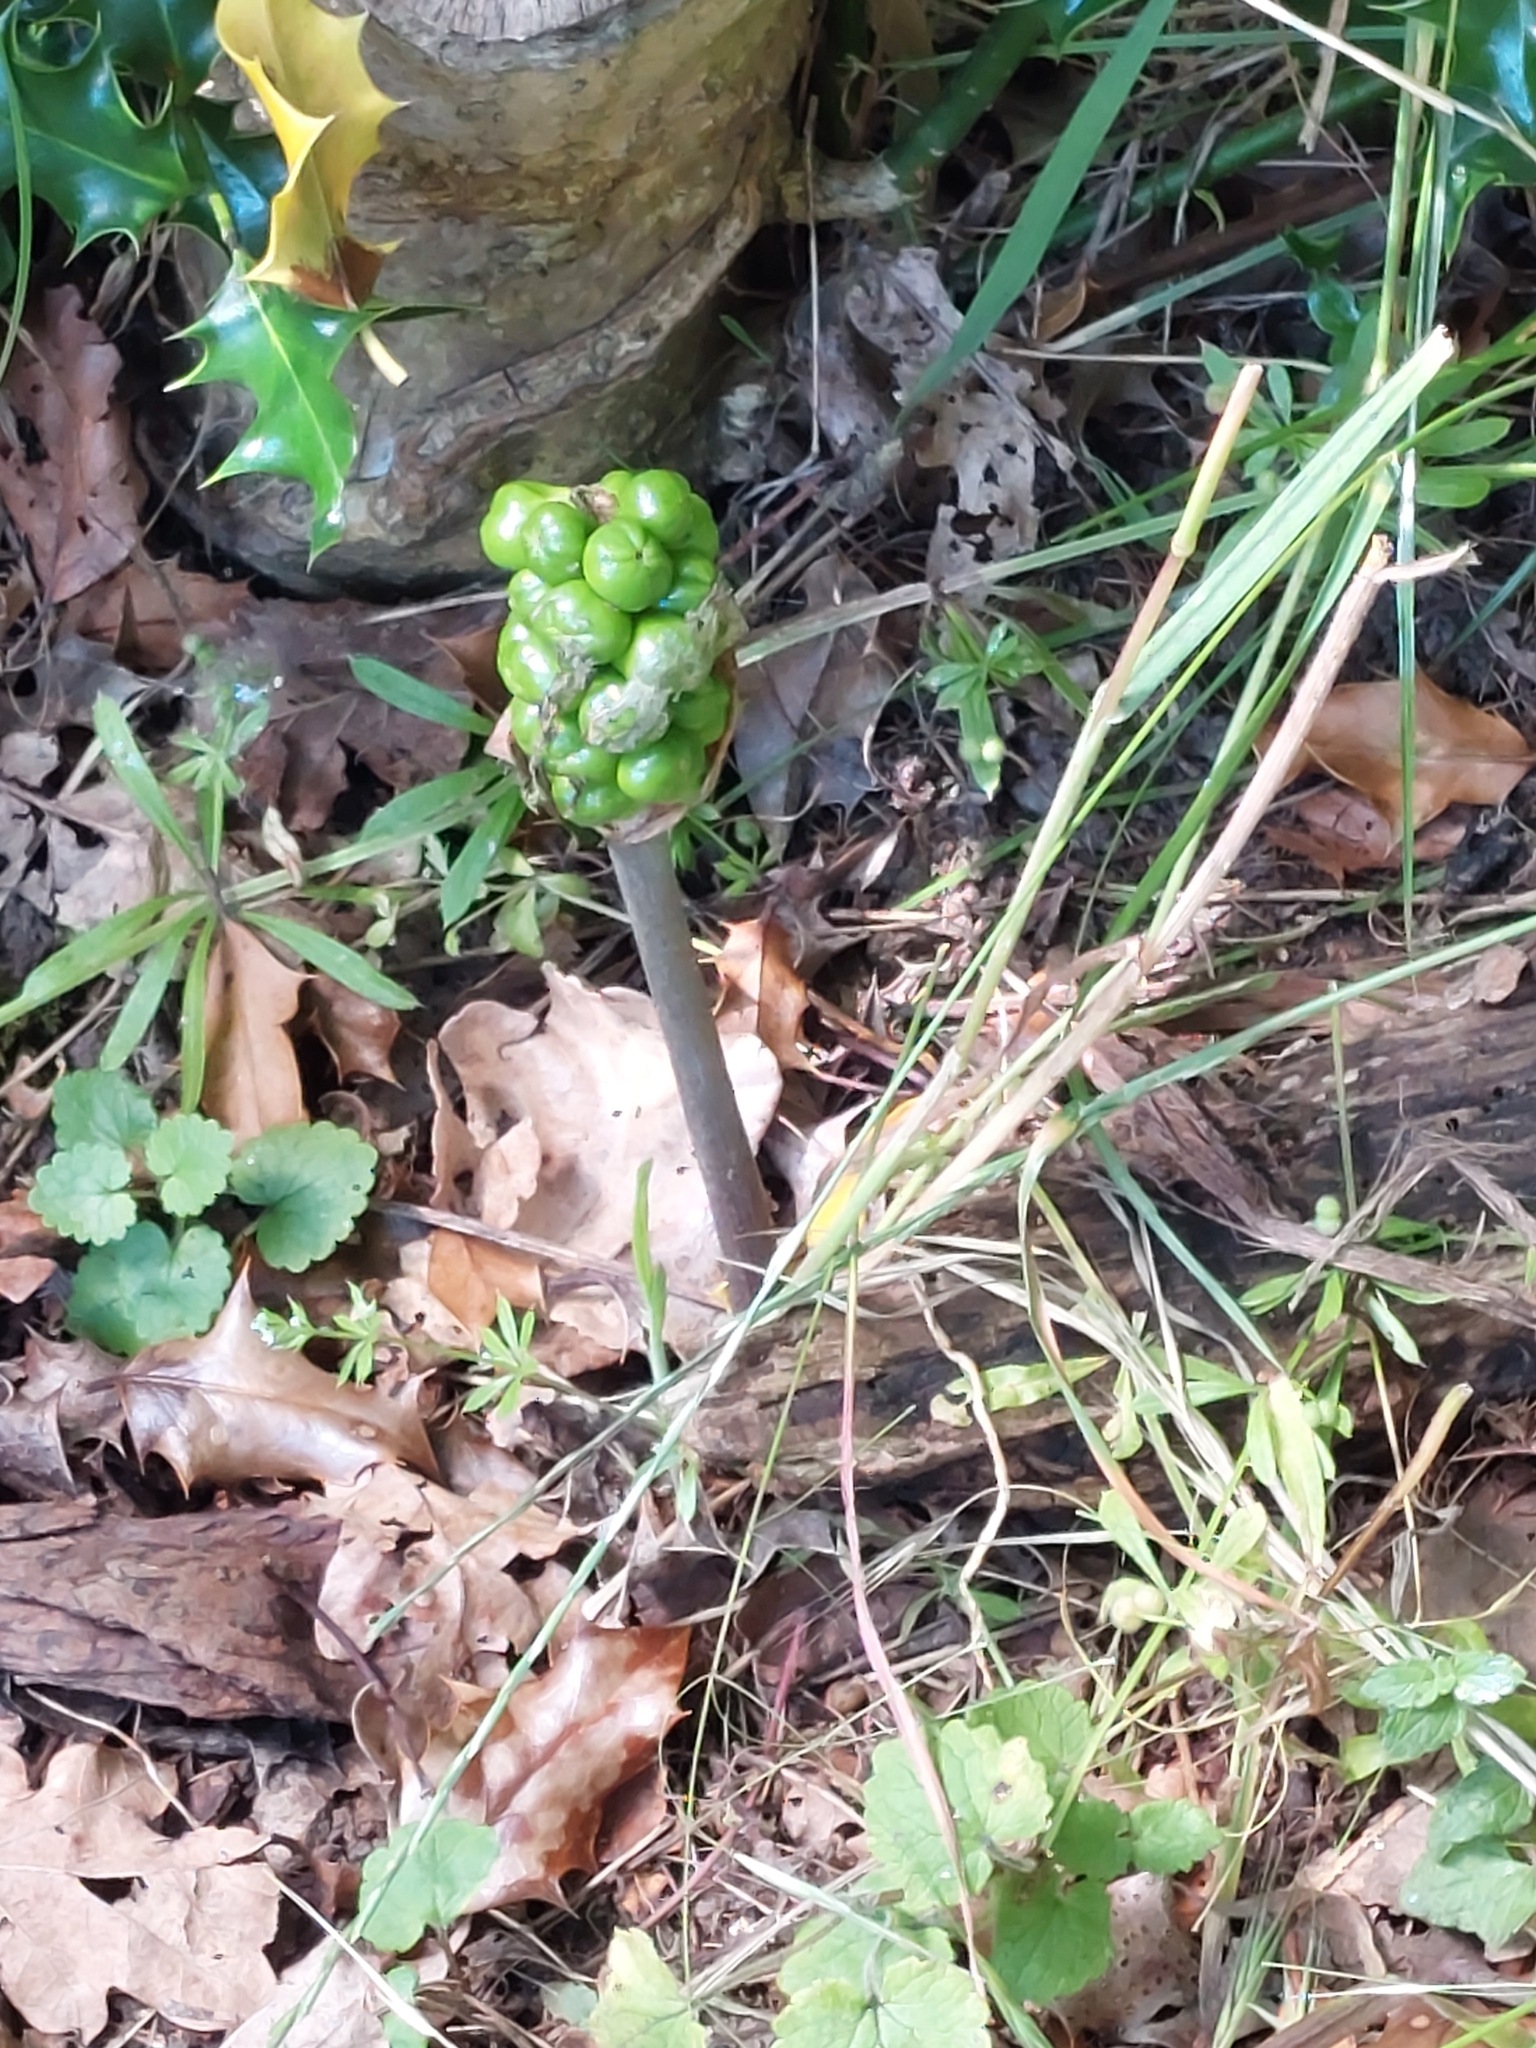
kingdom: Plantae
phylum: Tracheophyta
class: Liliopsida
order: Alismatales
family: Araceae
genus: Arum
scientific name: Arum maculatum
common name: Lords-and-ladies
